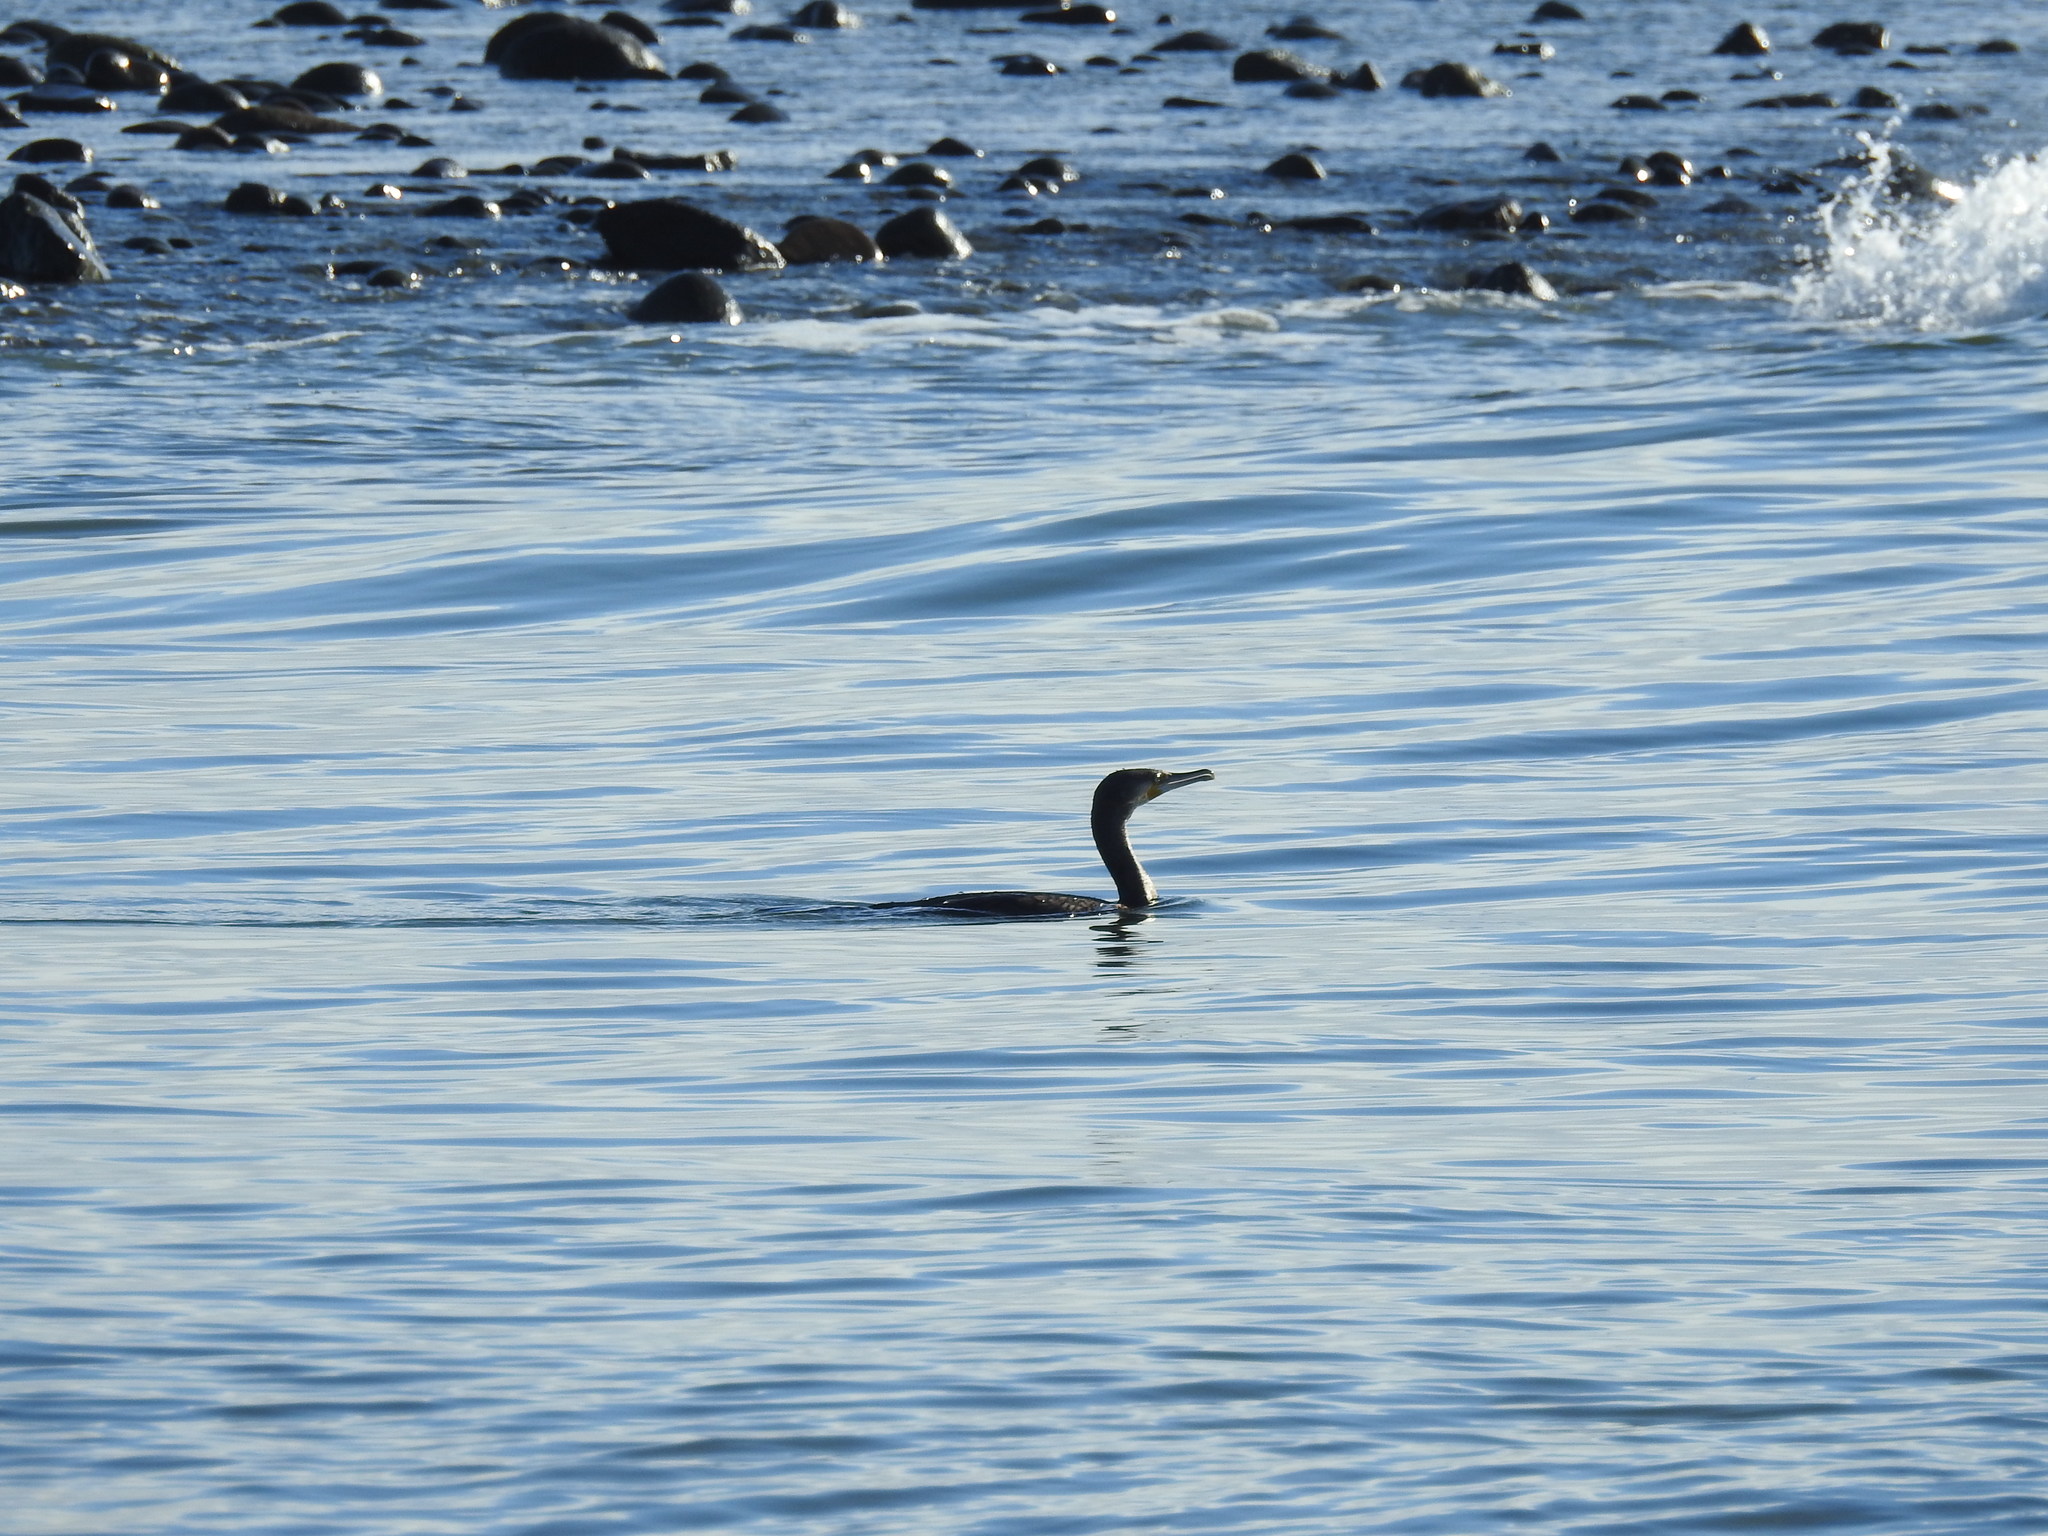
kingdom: Animalia
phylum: Chordata
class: Aves
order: Suliformes
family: Phalacrocoracidae
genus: Phalacrocorax
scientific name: Phalacrocorax carbo
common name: Great cormorant
